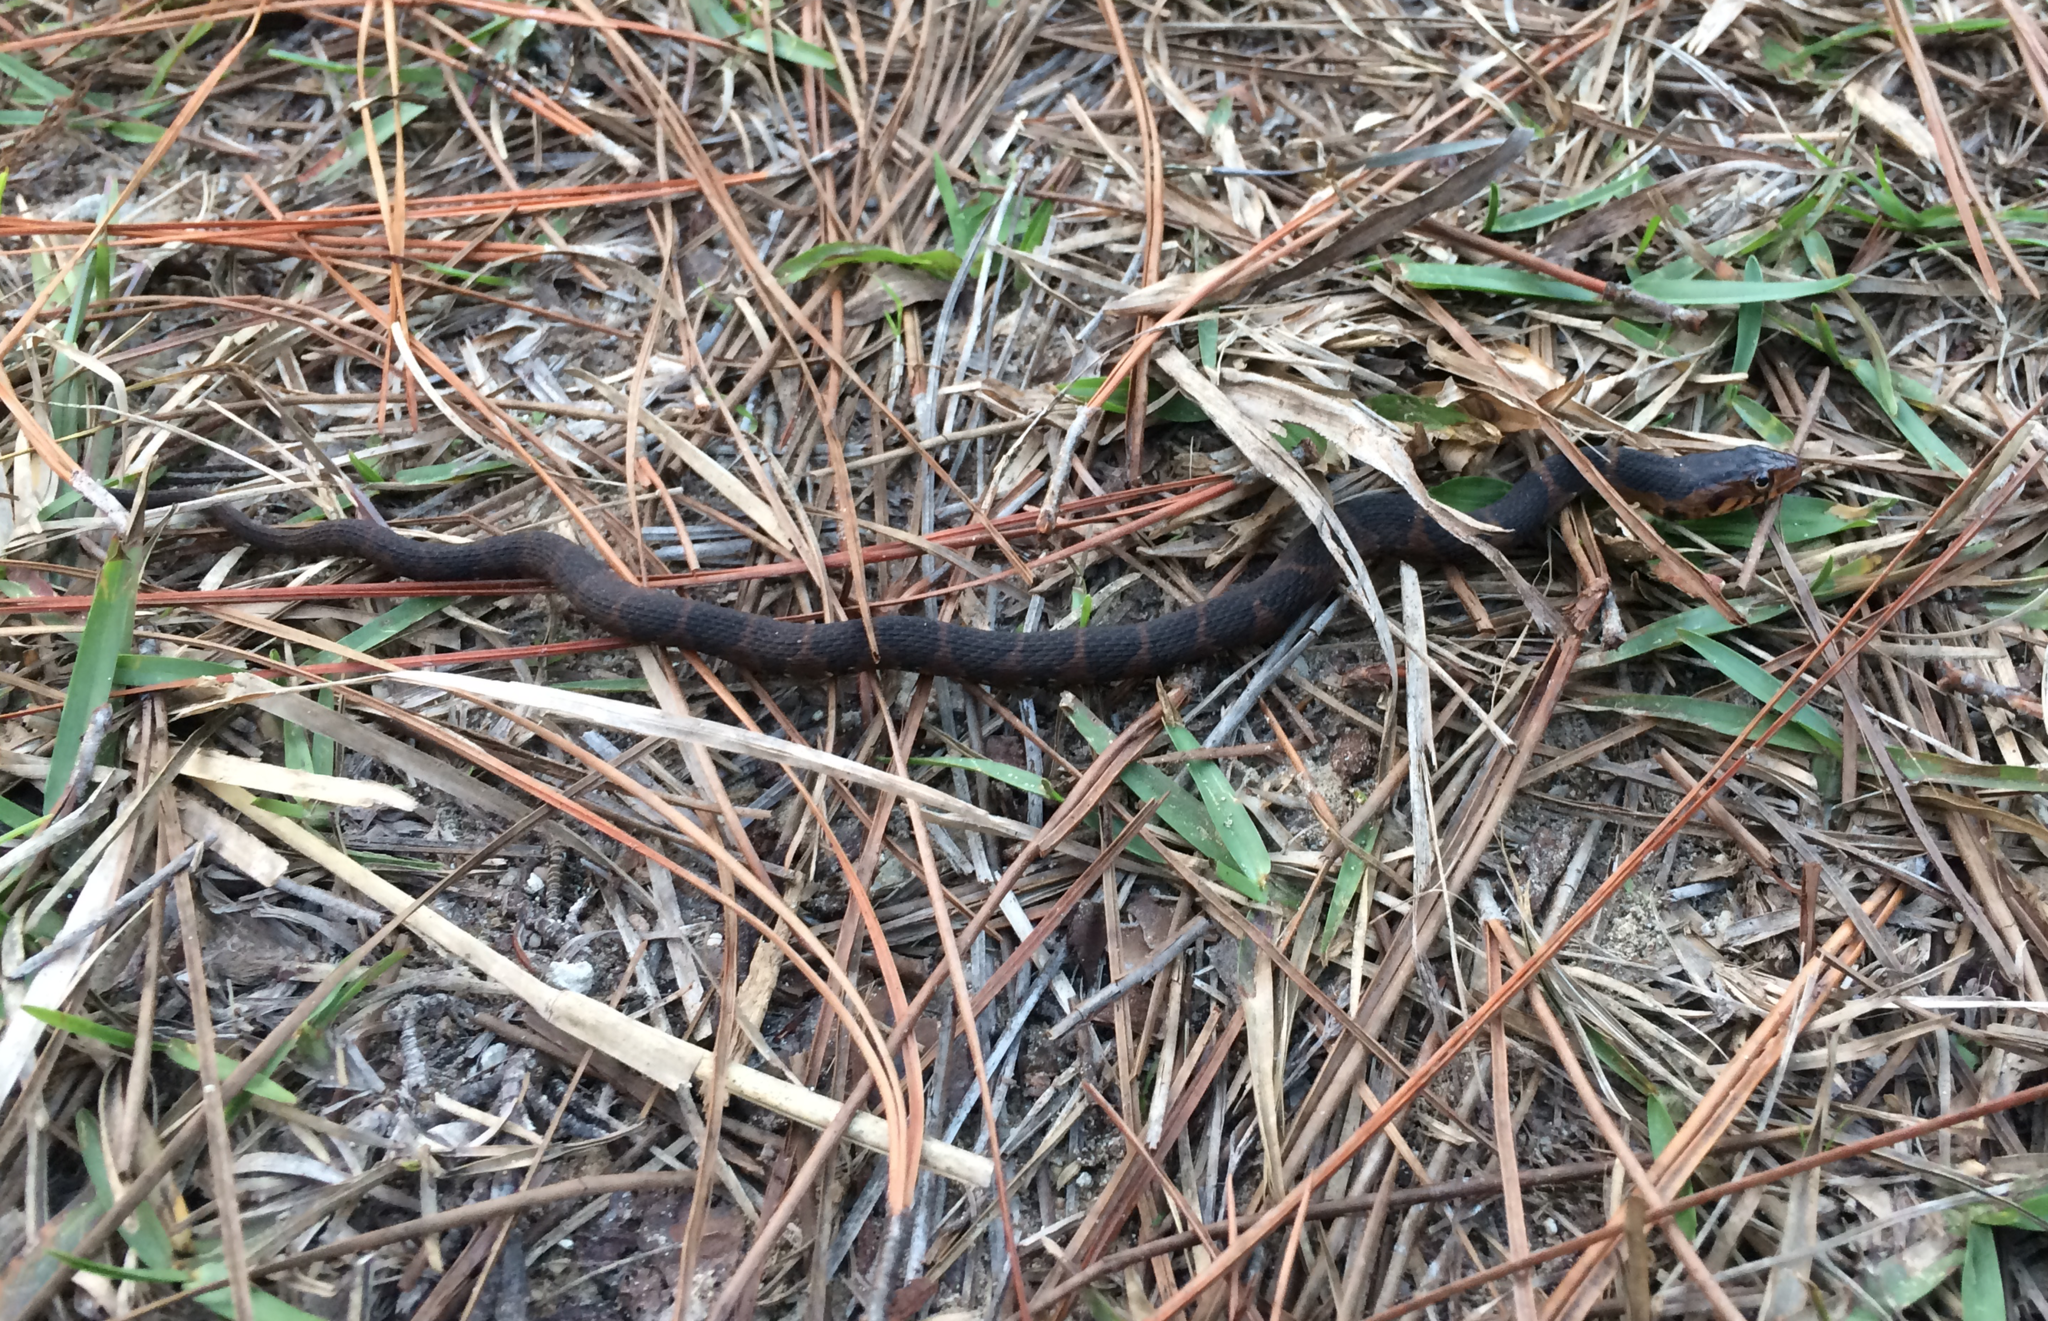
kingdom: Animalia
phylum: Chordata
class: Squamata
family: Colubridae
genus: Nerodia
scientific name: Nerodia fasciata
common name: Southern water snake
